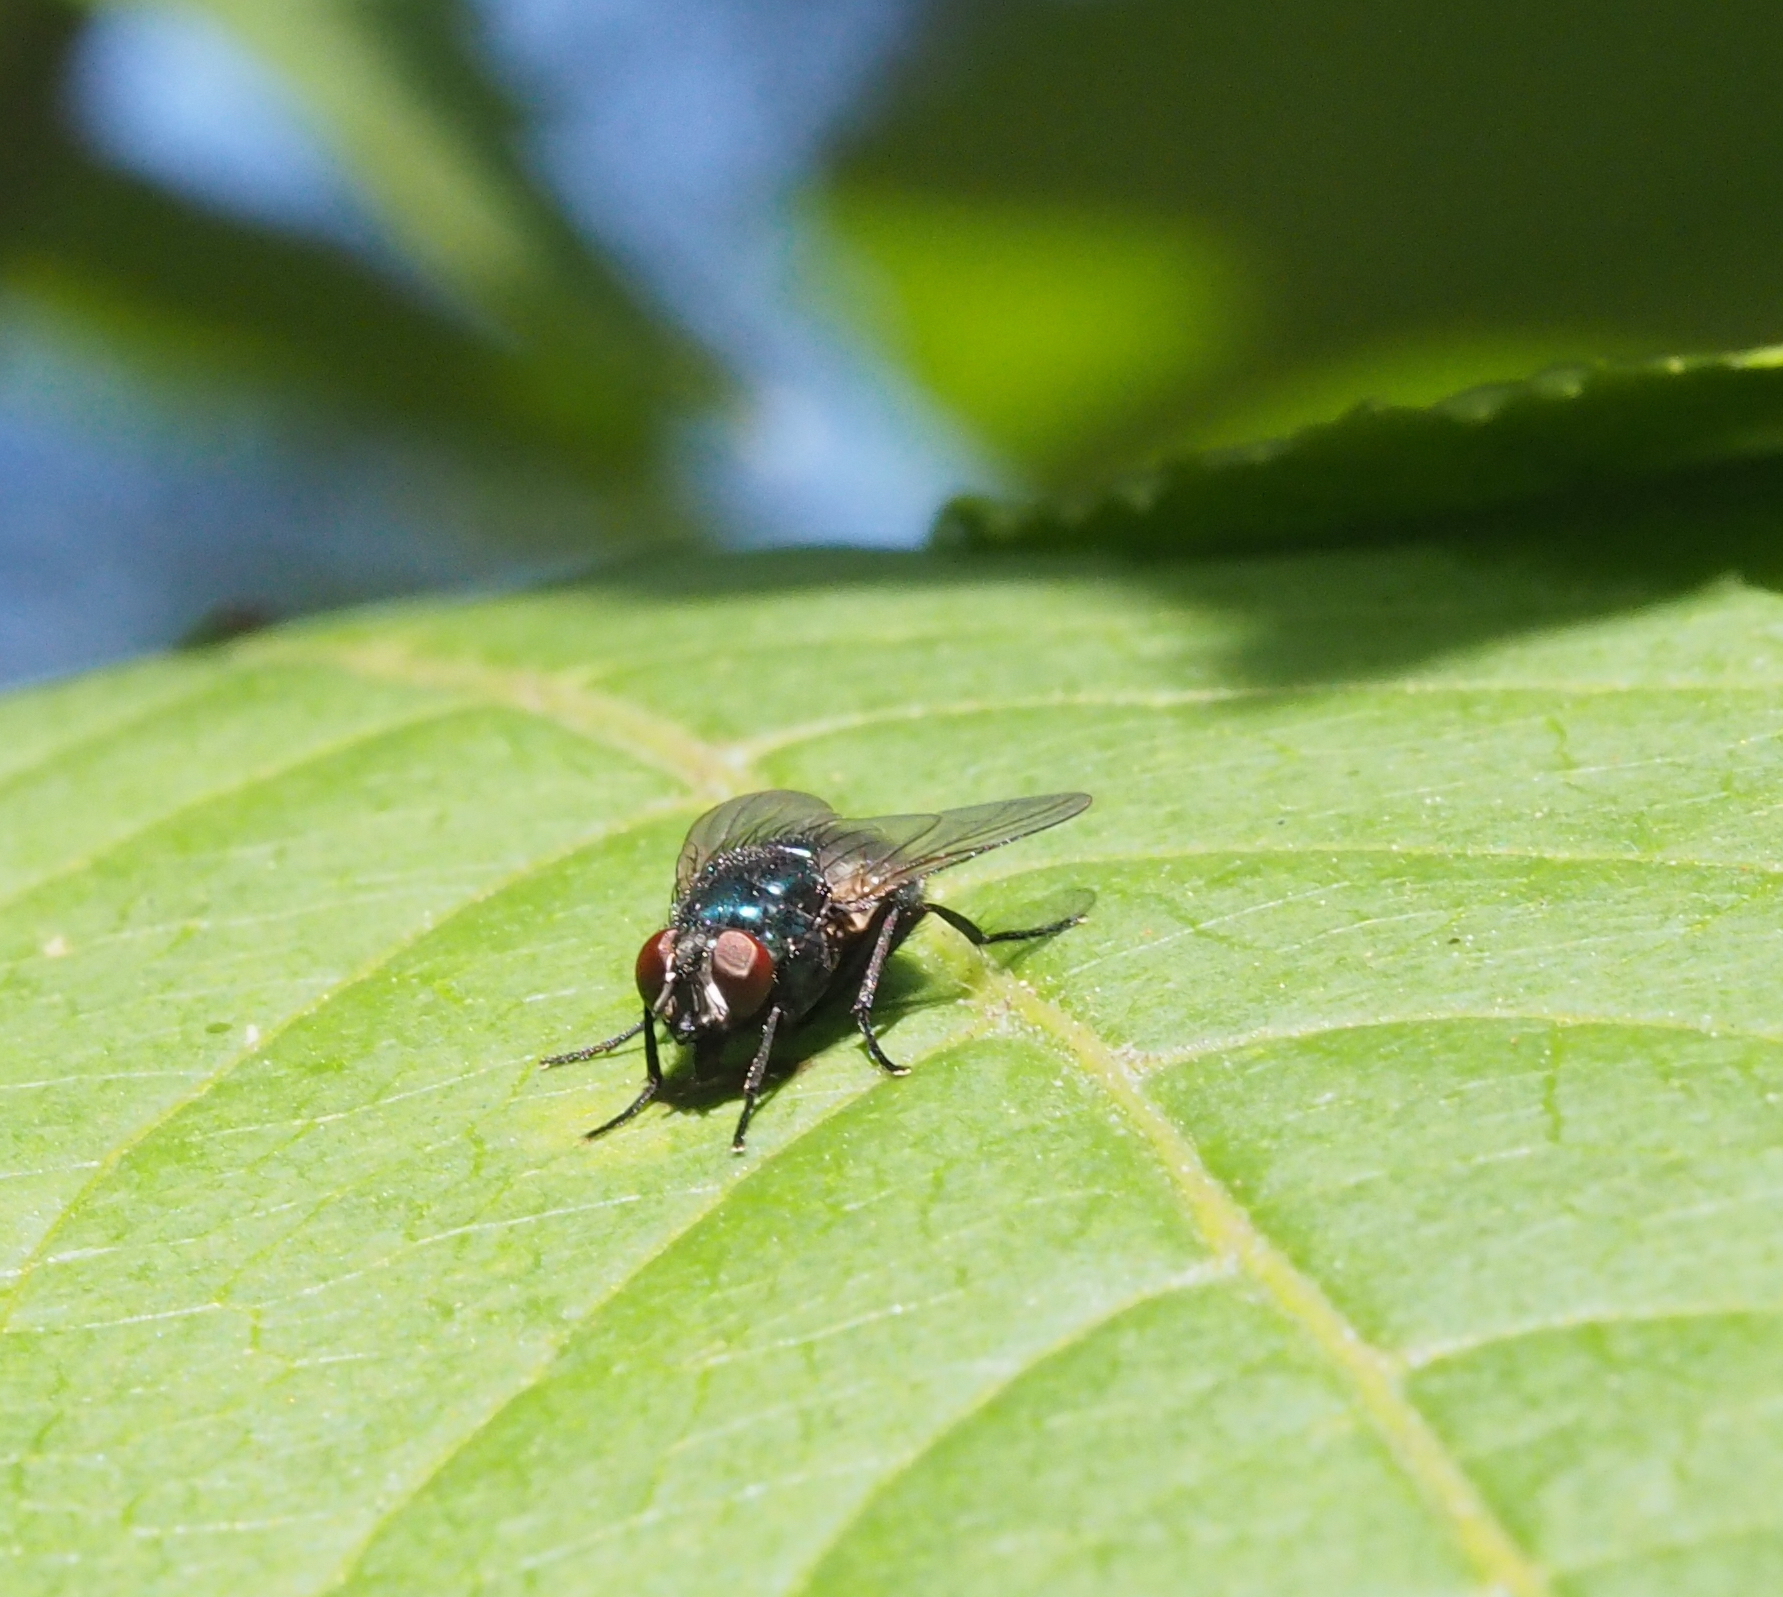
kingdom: Animalia
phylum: Arthropoda
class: Insecta
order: Diptera
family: Muscidae
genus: Eudasyphora
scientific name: Eudasyphora cyanicolor
